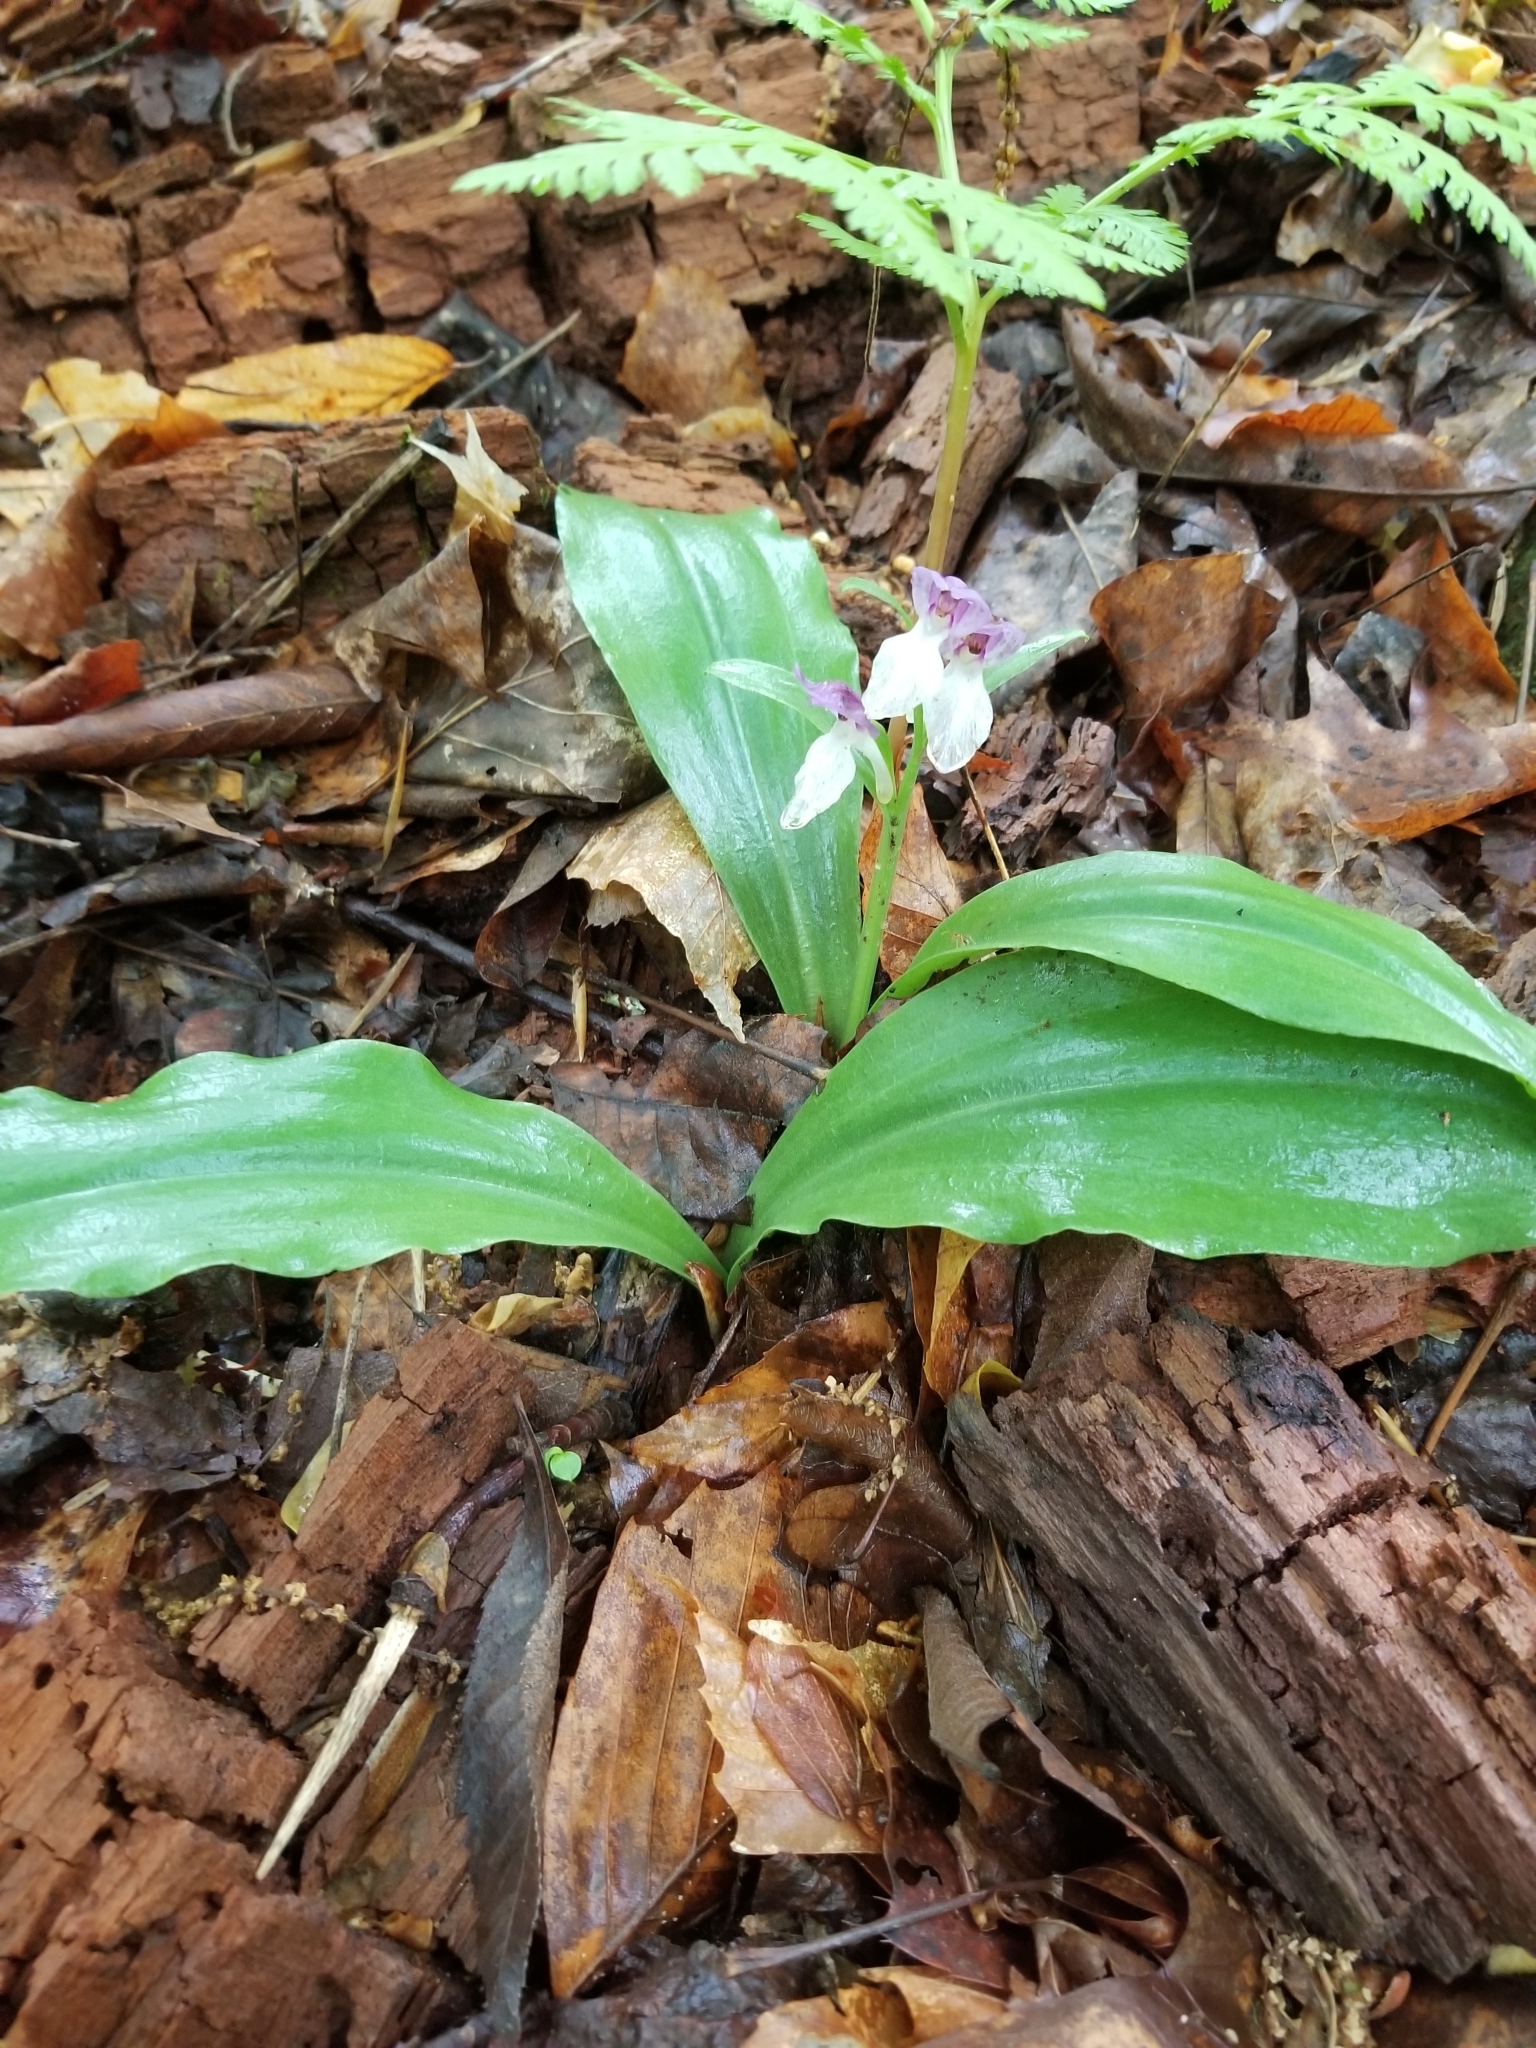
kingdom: Plantae
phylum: Tracheophyta
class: Liliopsida
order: Asparagales
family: Orchidaceae
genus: Galearis
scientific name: Galearis spectabilis
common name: Purple-hooded orchis
